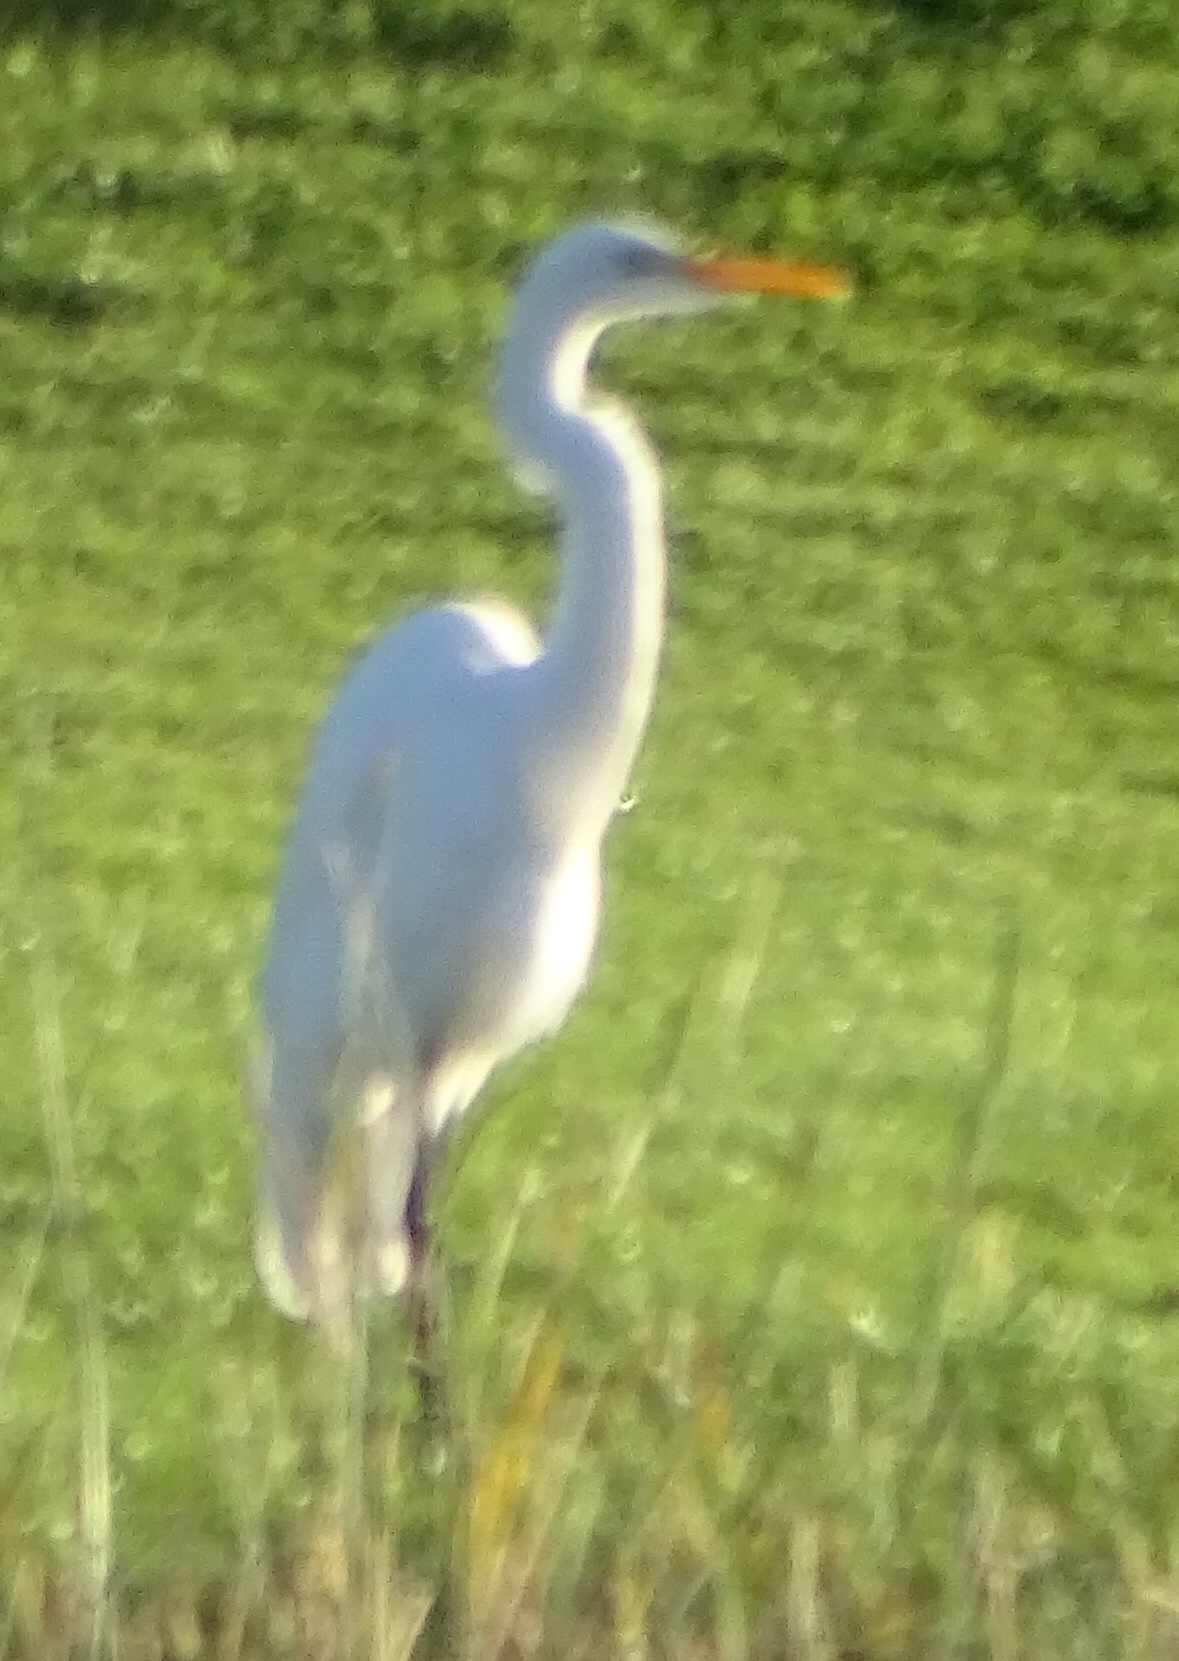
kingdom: Animalia
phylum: Chordata
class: Aves
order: Pelecaniformes
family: Ardeidae
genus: Ardea
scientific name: Ardea alba
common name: Great egret
